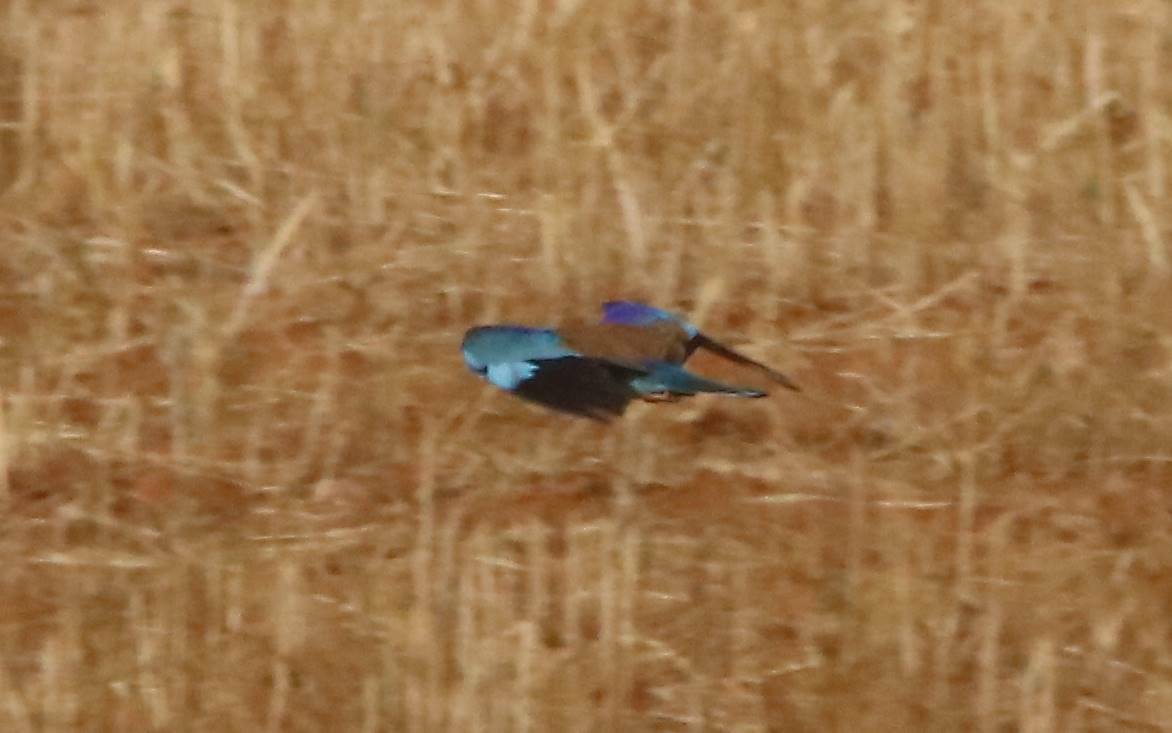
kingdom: Animalia
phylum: Chordata
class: Aves
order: Coraciiformes
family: Coraciidae
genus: Coracias
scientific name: Coracias garrulus
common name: European roller
